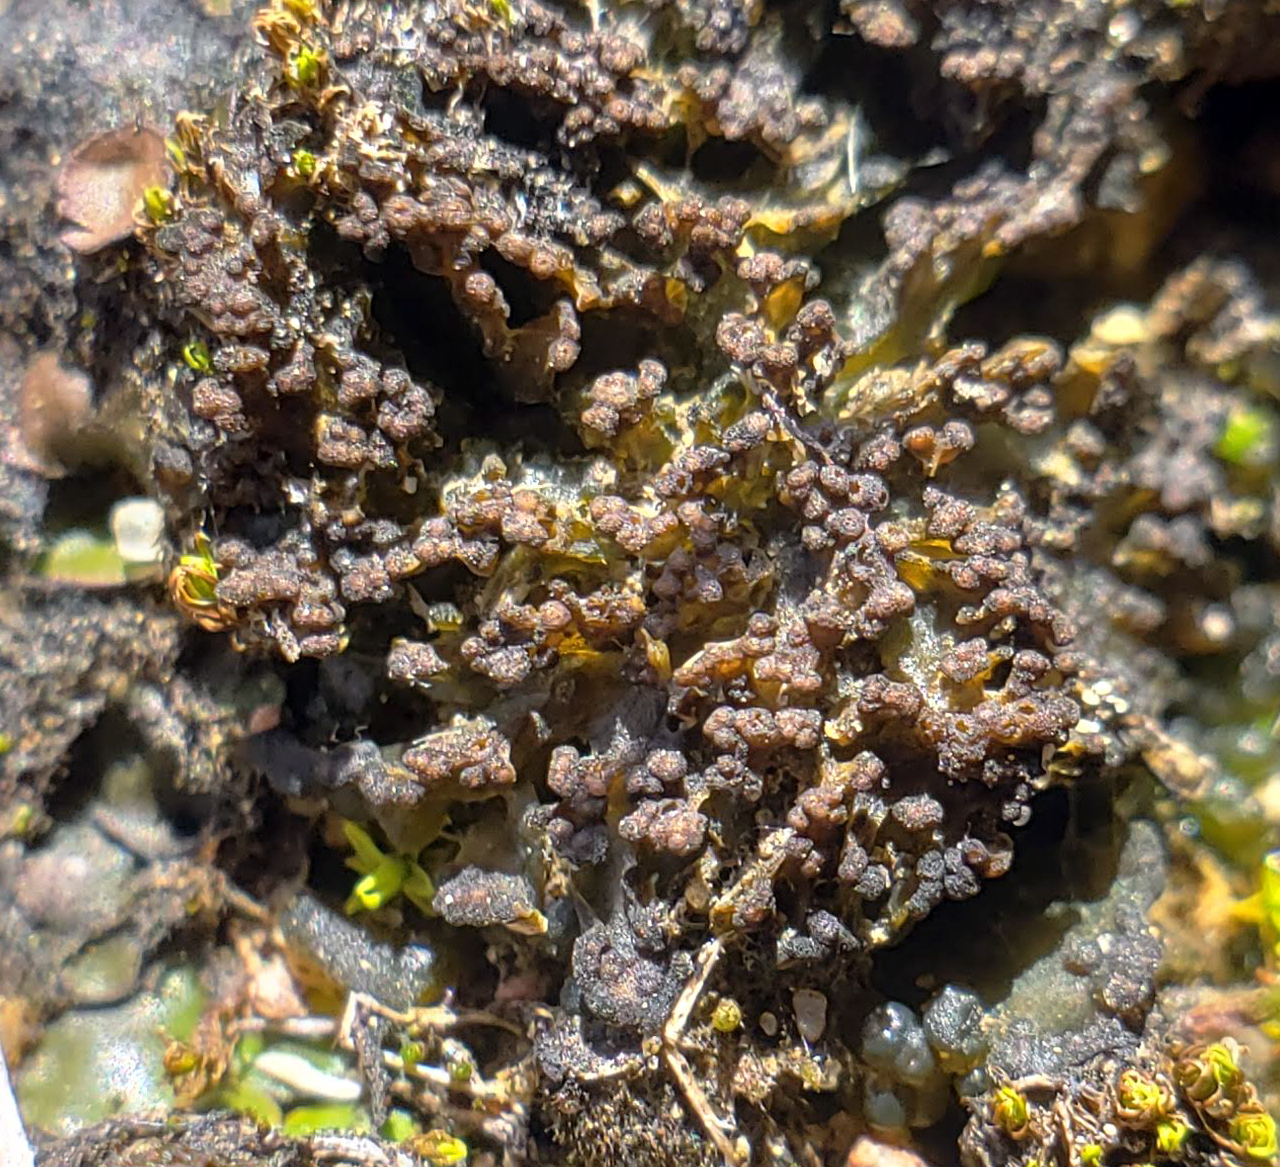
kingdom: Fungi
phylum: Ascomycota
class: Lichinomycetes
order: Lichinales
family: Lichinaceae
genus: Lempholemma
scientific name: Lempholemma polyanthes
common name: Thousand-fruited jelly lichen
